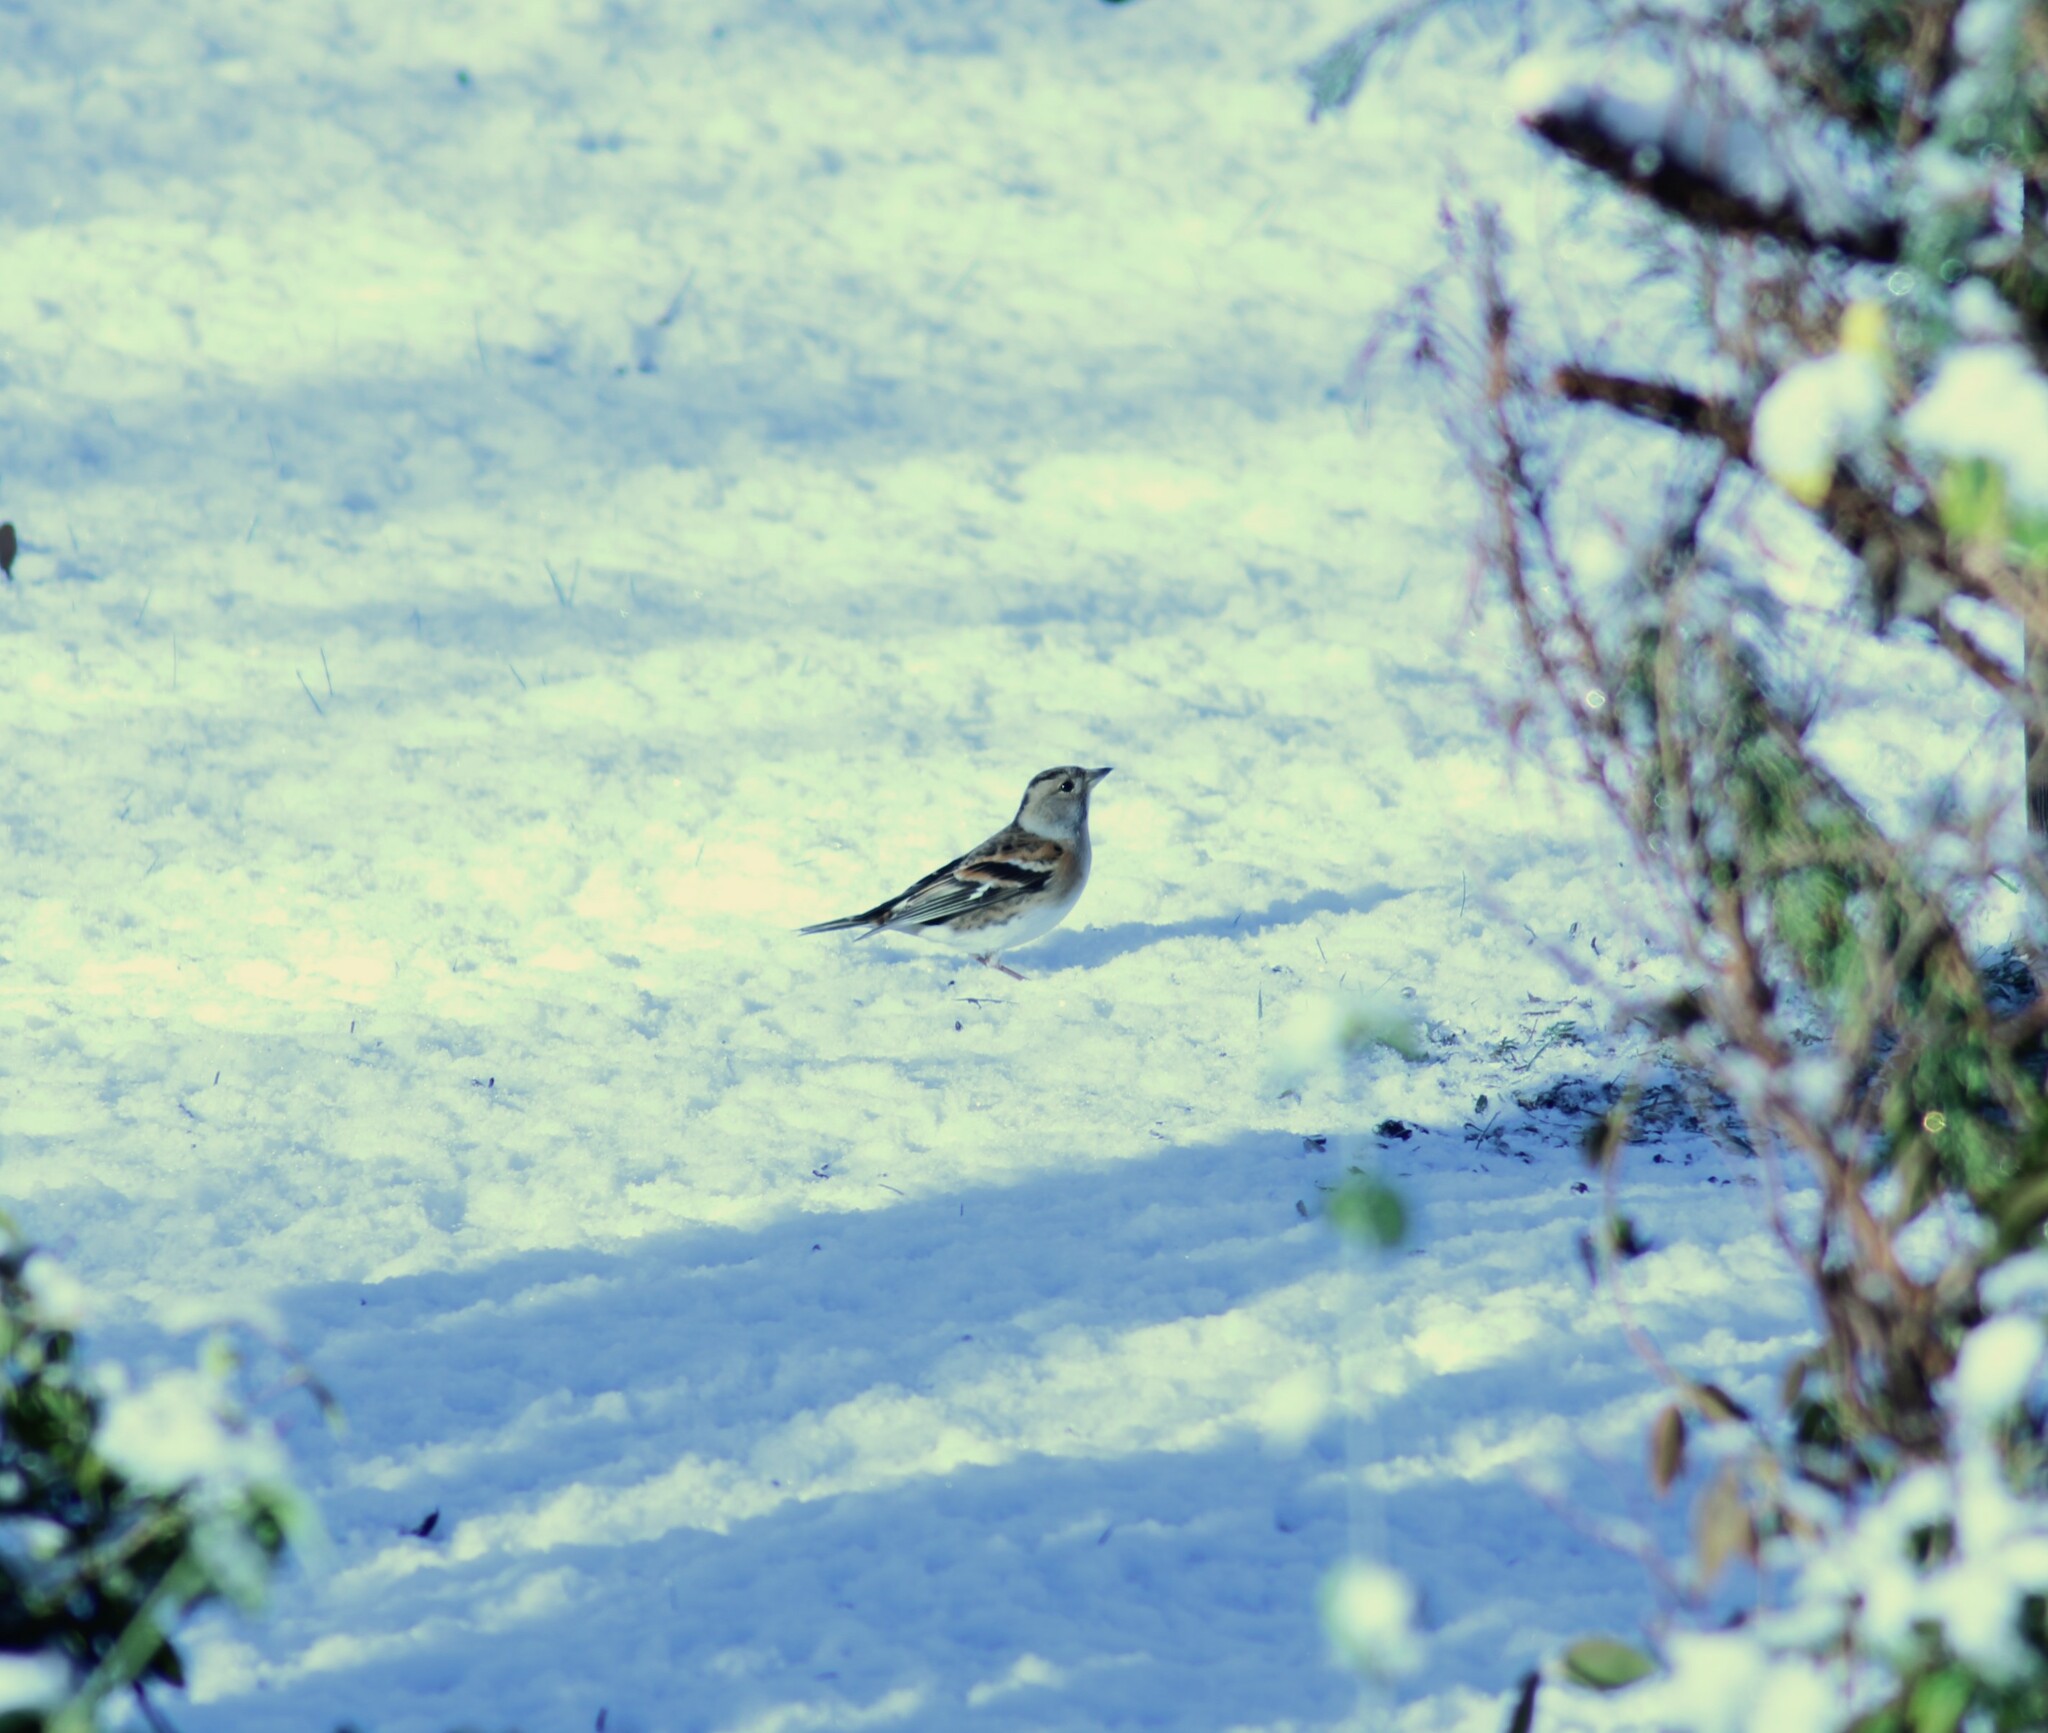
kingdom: Animalia
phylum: Chordata
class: Aves
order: Passeriformes
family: Fringillidae
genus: Fringilla
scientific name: Fringilla montifringilla
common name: Brambling
